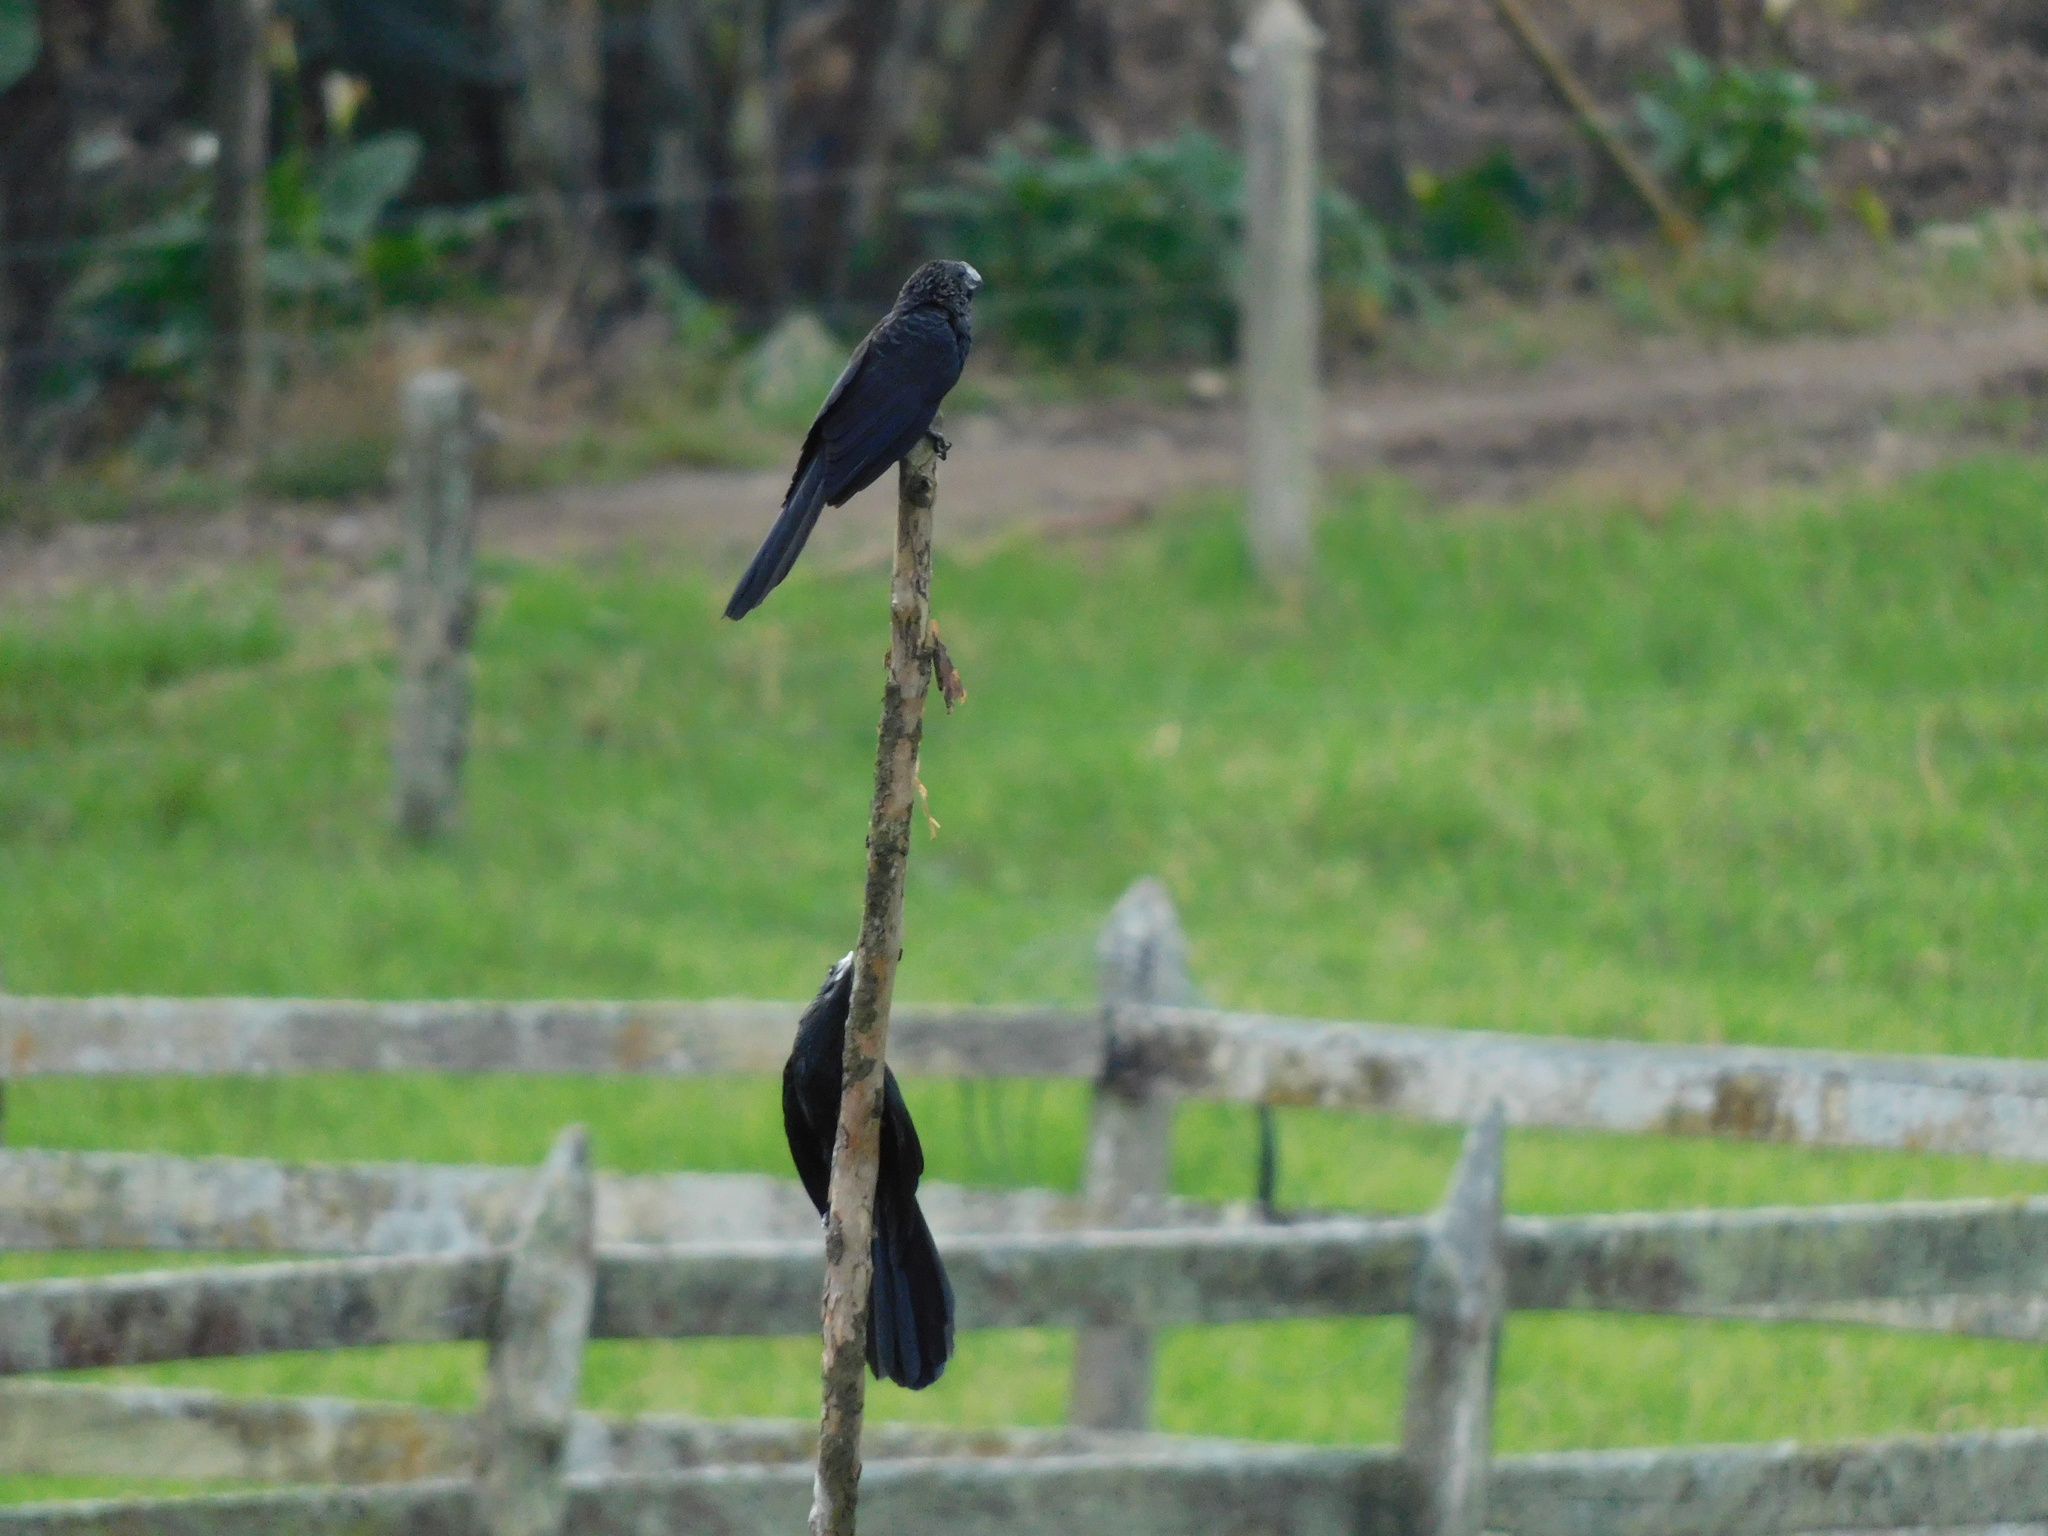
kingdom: Animalia
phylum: Chordata
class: Aves
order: Cuculiformes
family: Cuculidae
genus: Crotophaga
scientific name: Crotophaga ani
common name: Smooth-billed ani
